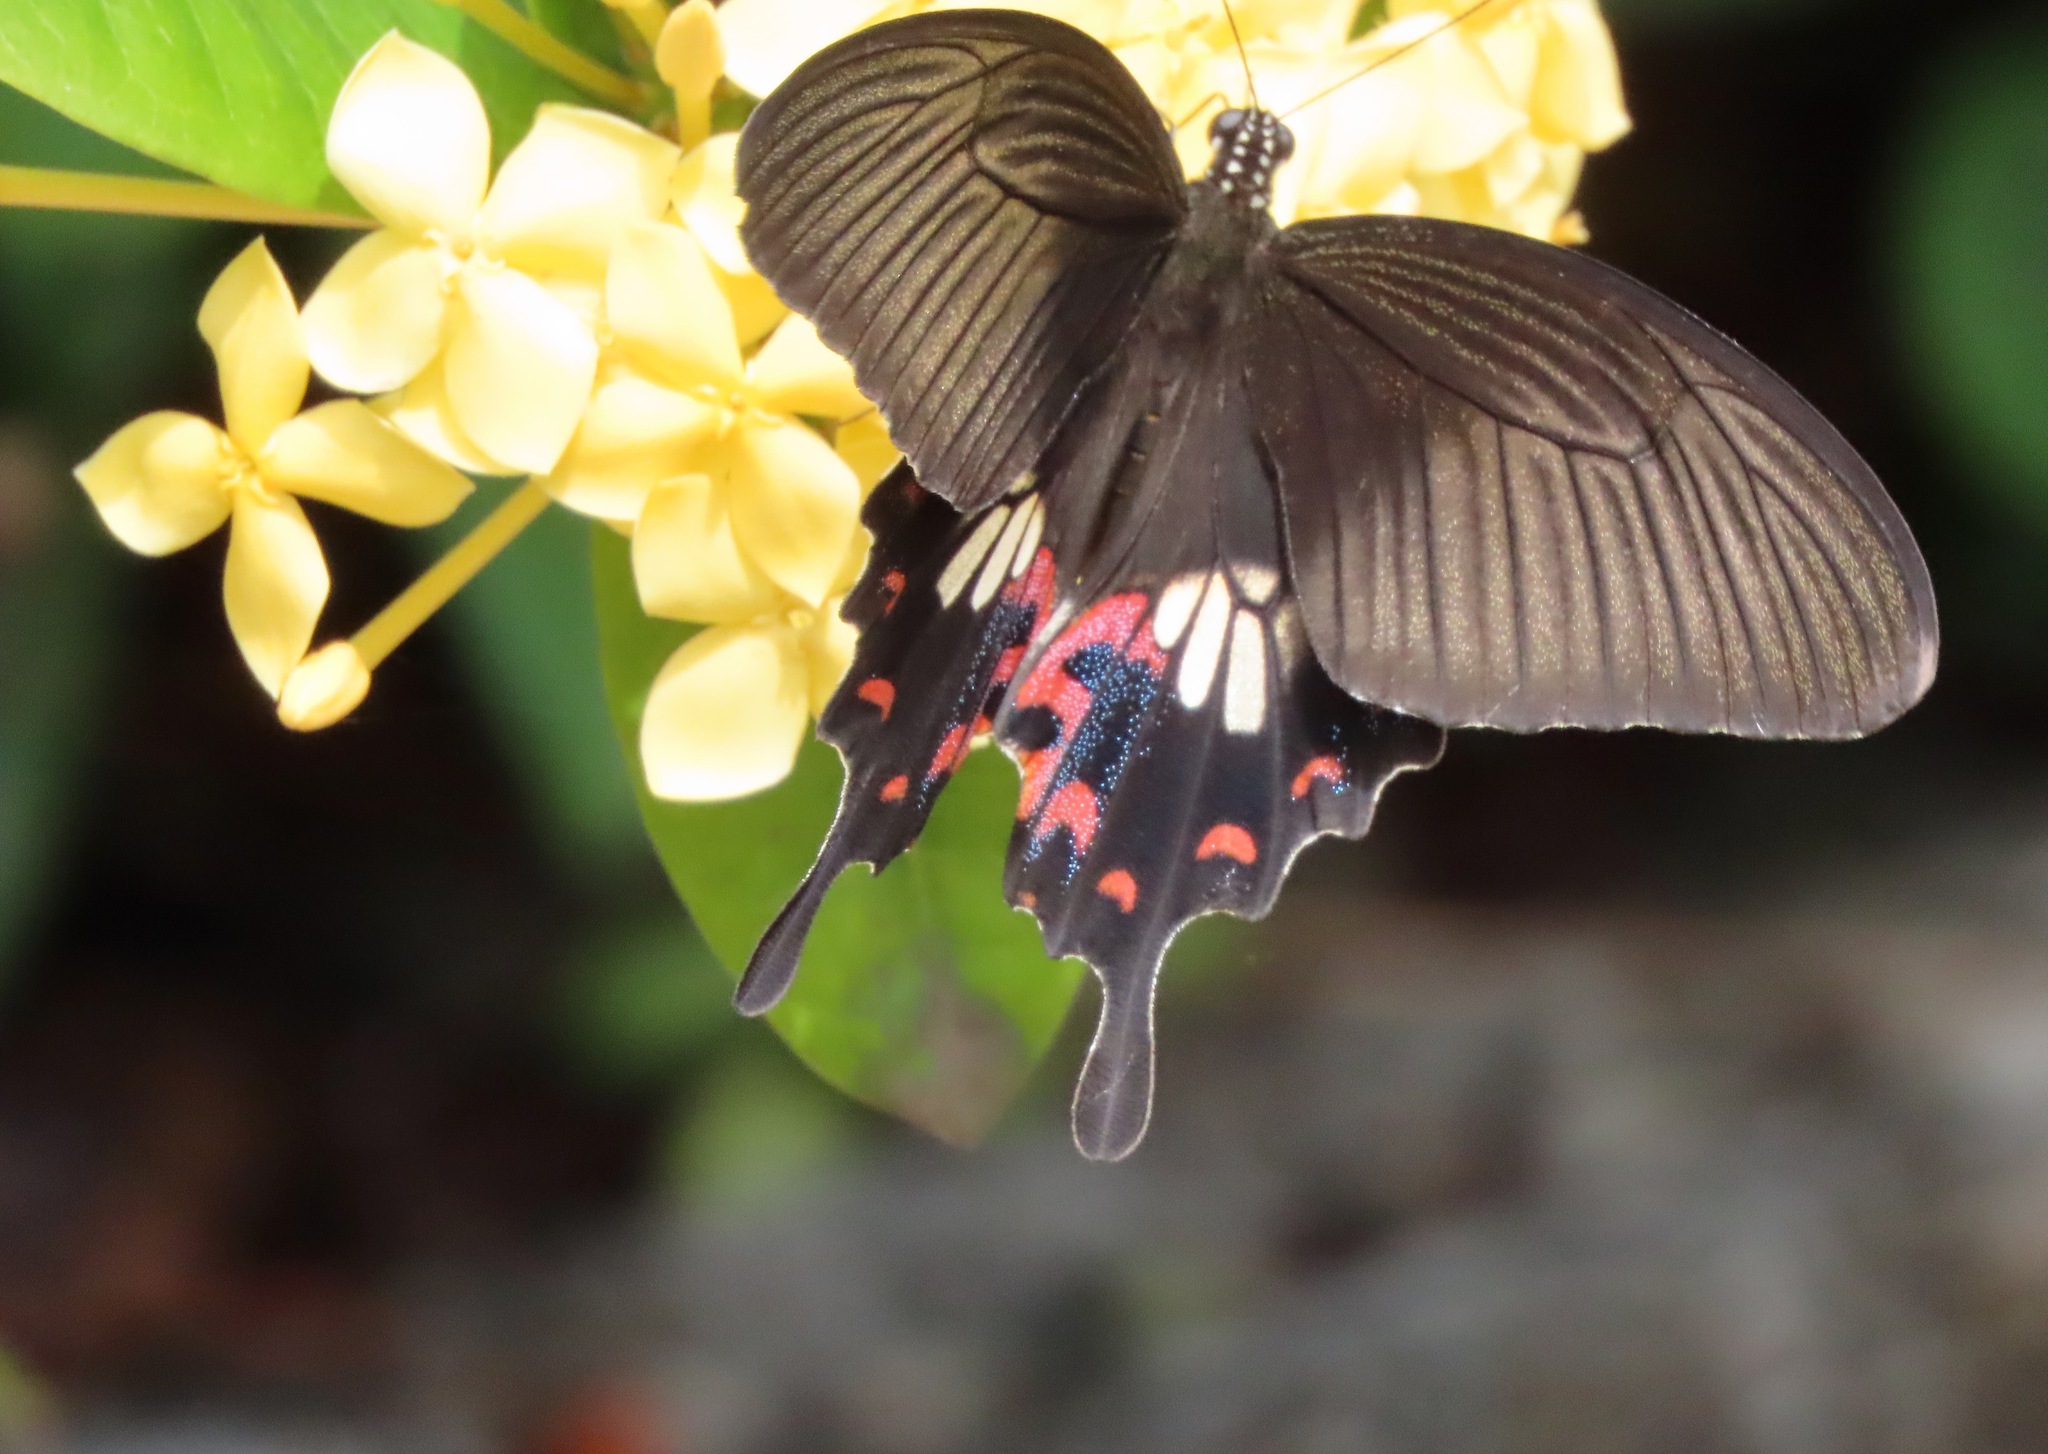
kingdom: Animalia
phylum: Arthropoda
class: Insecta
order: Lepidoptera
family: Papilionidae
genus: Papilio
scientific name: Papilio polytes
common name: Common mormon
